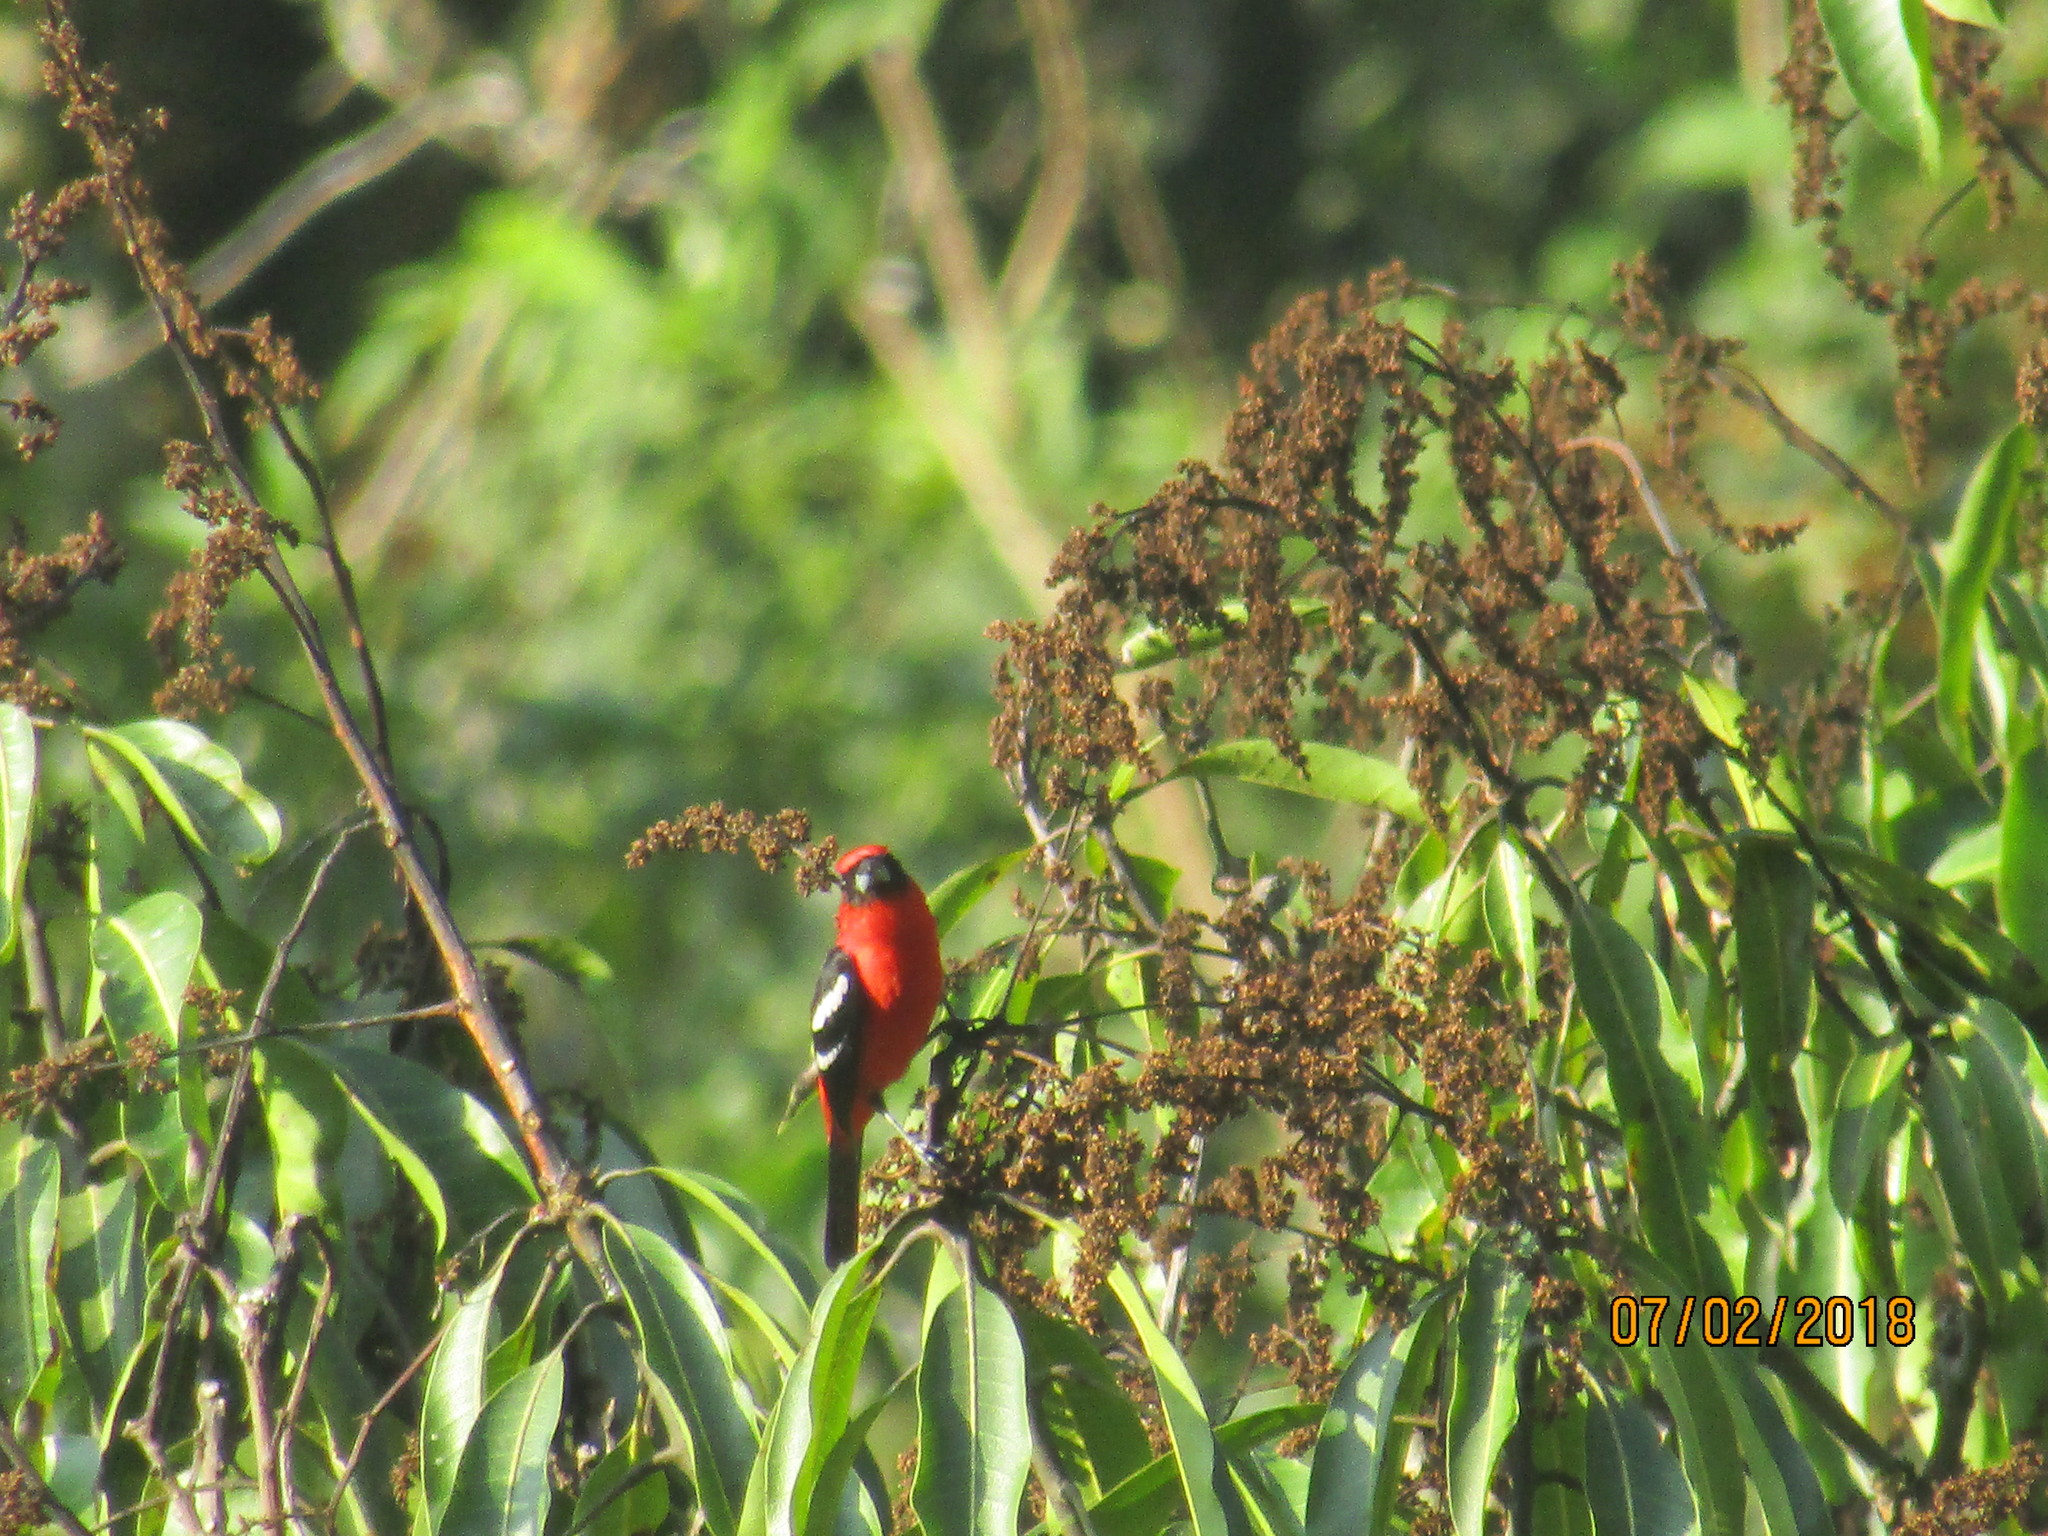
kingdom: Animalia
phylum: Chordata
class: Aves
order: Passeriformes
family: Cardinalidae
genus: Piranga
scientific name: Piranga leucoptera
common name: White-winged tanager
